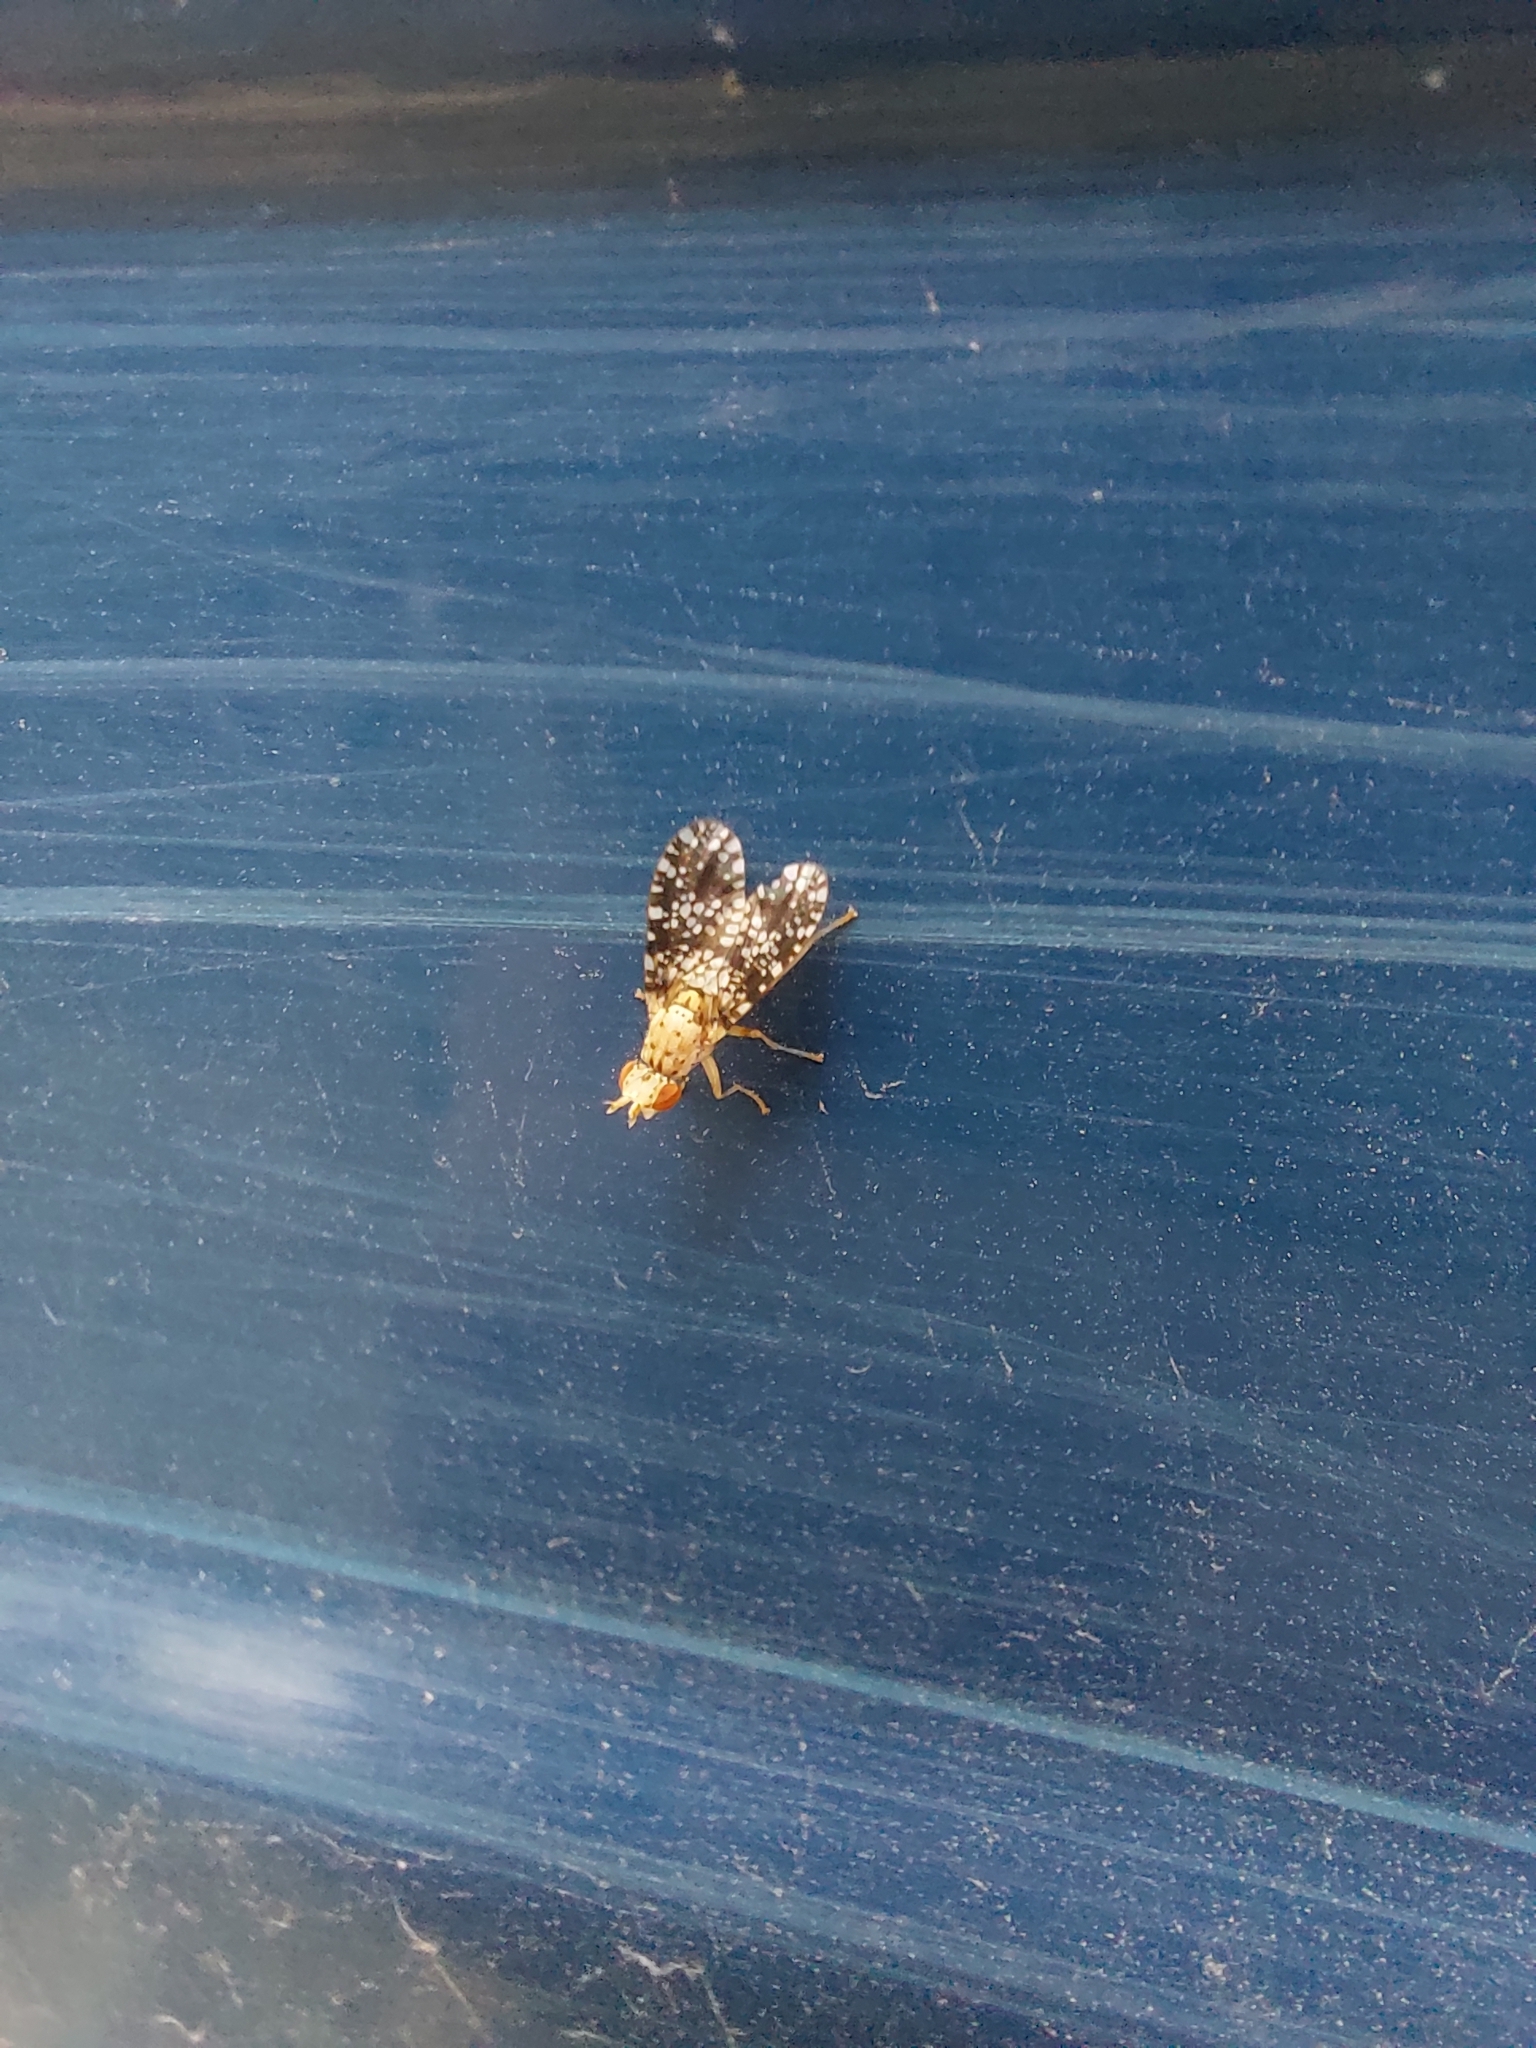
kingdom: Animalia
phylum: Arthropoda
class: Insecta
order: Diptera
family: Sciomyzidae
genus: Trypetoptera
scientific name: Trypetoptera punctulata
